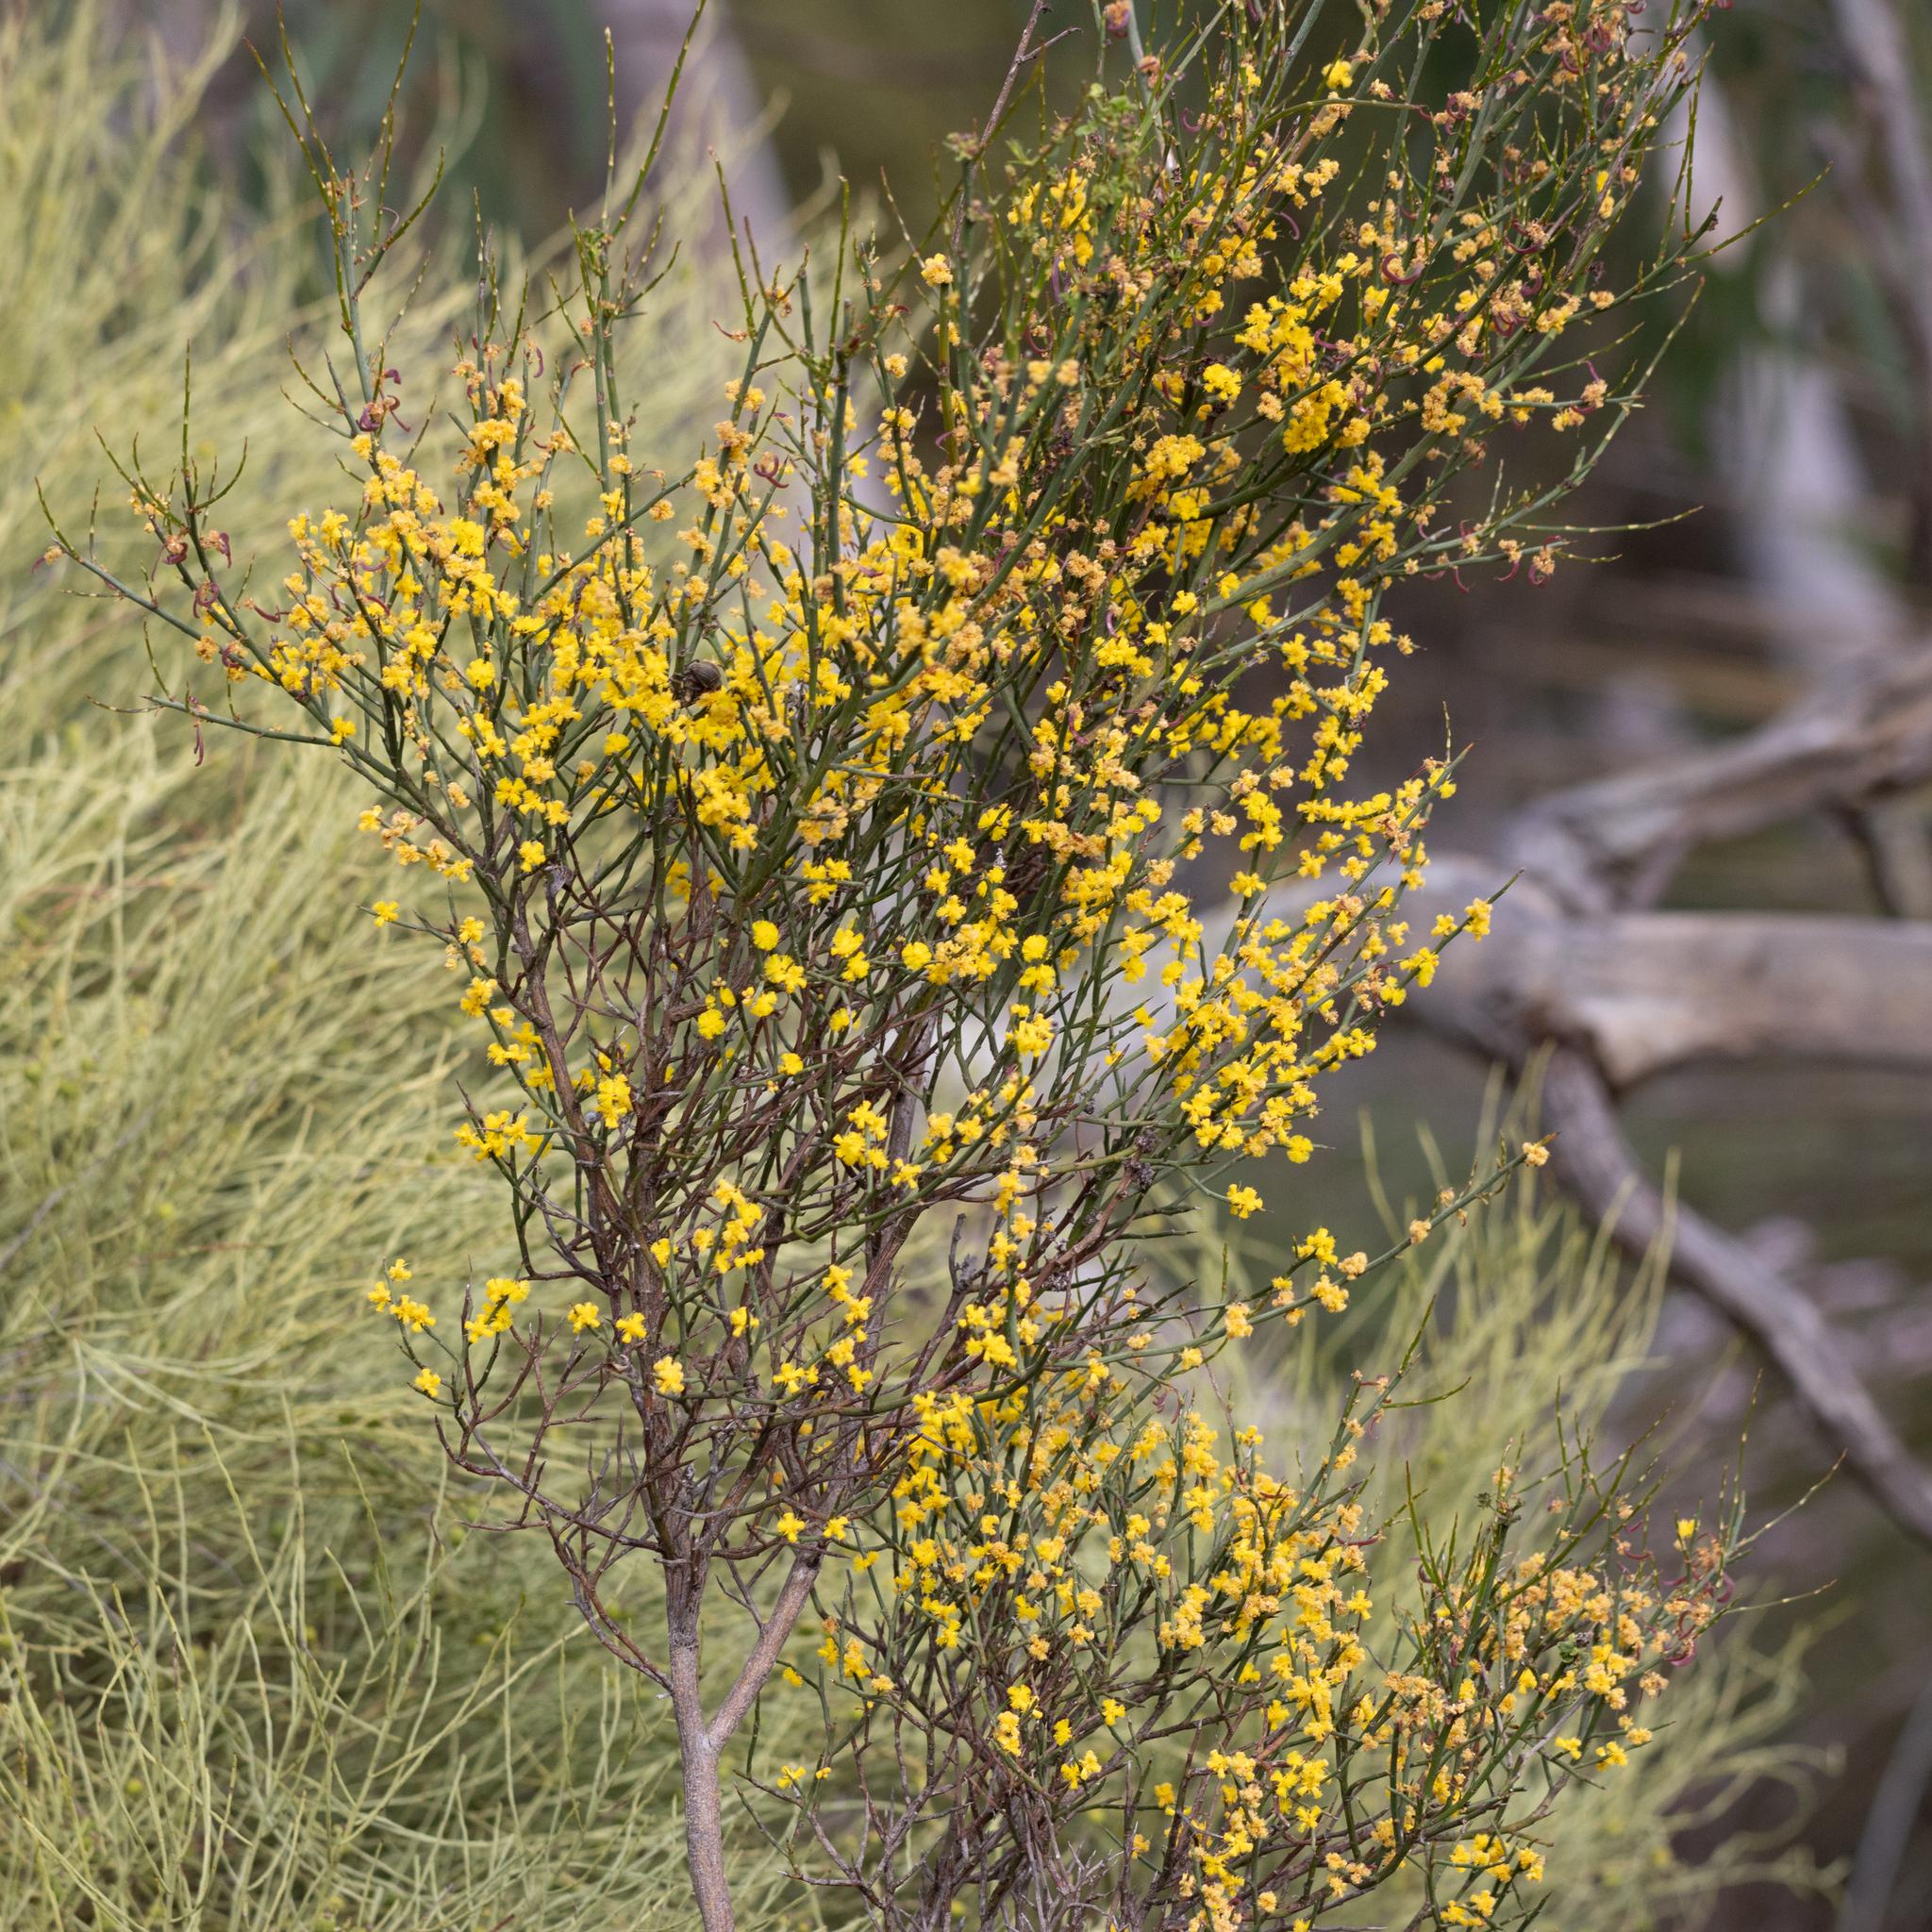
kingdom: Plantae
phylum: Tracheophyta
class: Magnoliopsida
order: Fabales
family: Fabaceae
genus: Acacia
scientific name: Acacia spinescens
